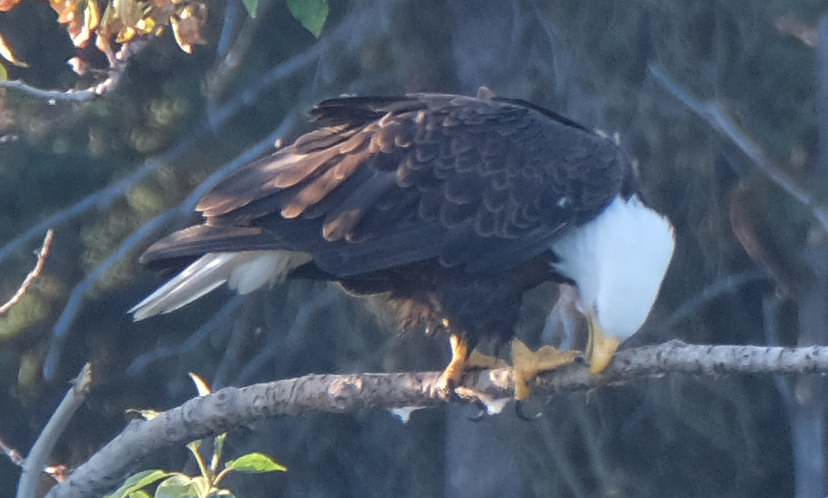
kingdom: Animalia
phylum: Chordata
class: Aves
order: Accipitriformes
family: Accipitridae
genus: Haliaeetus
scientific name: Haliaeetus leucocephalus
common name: Bald eagle
